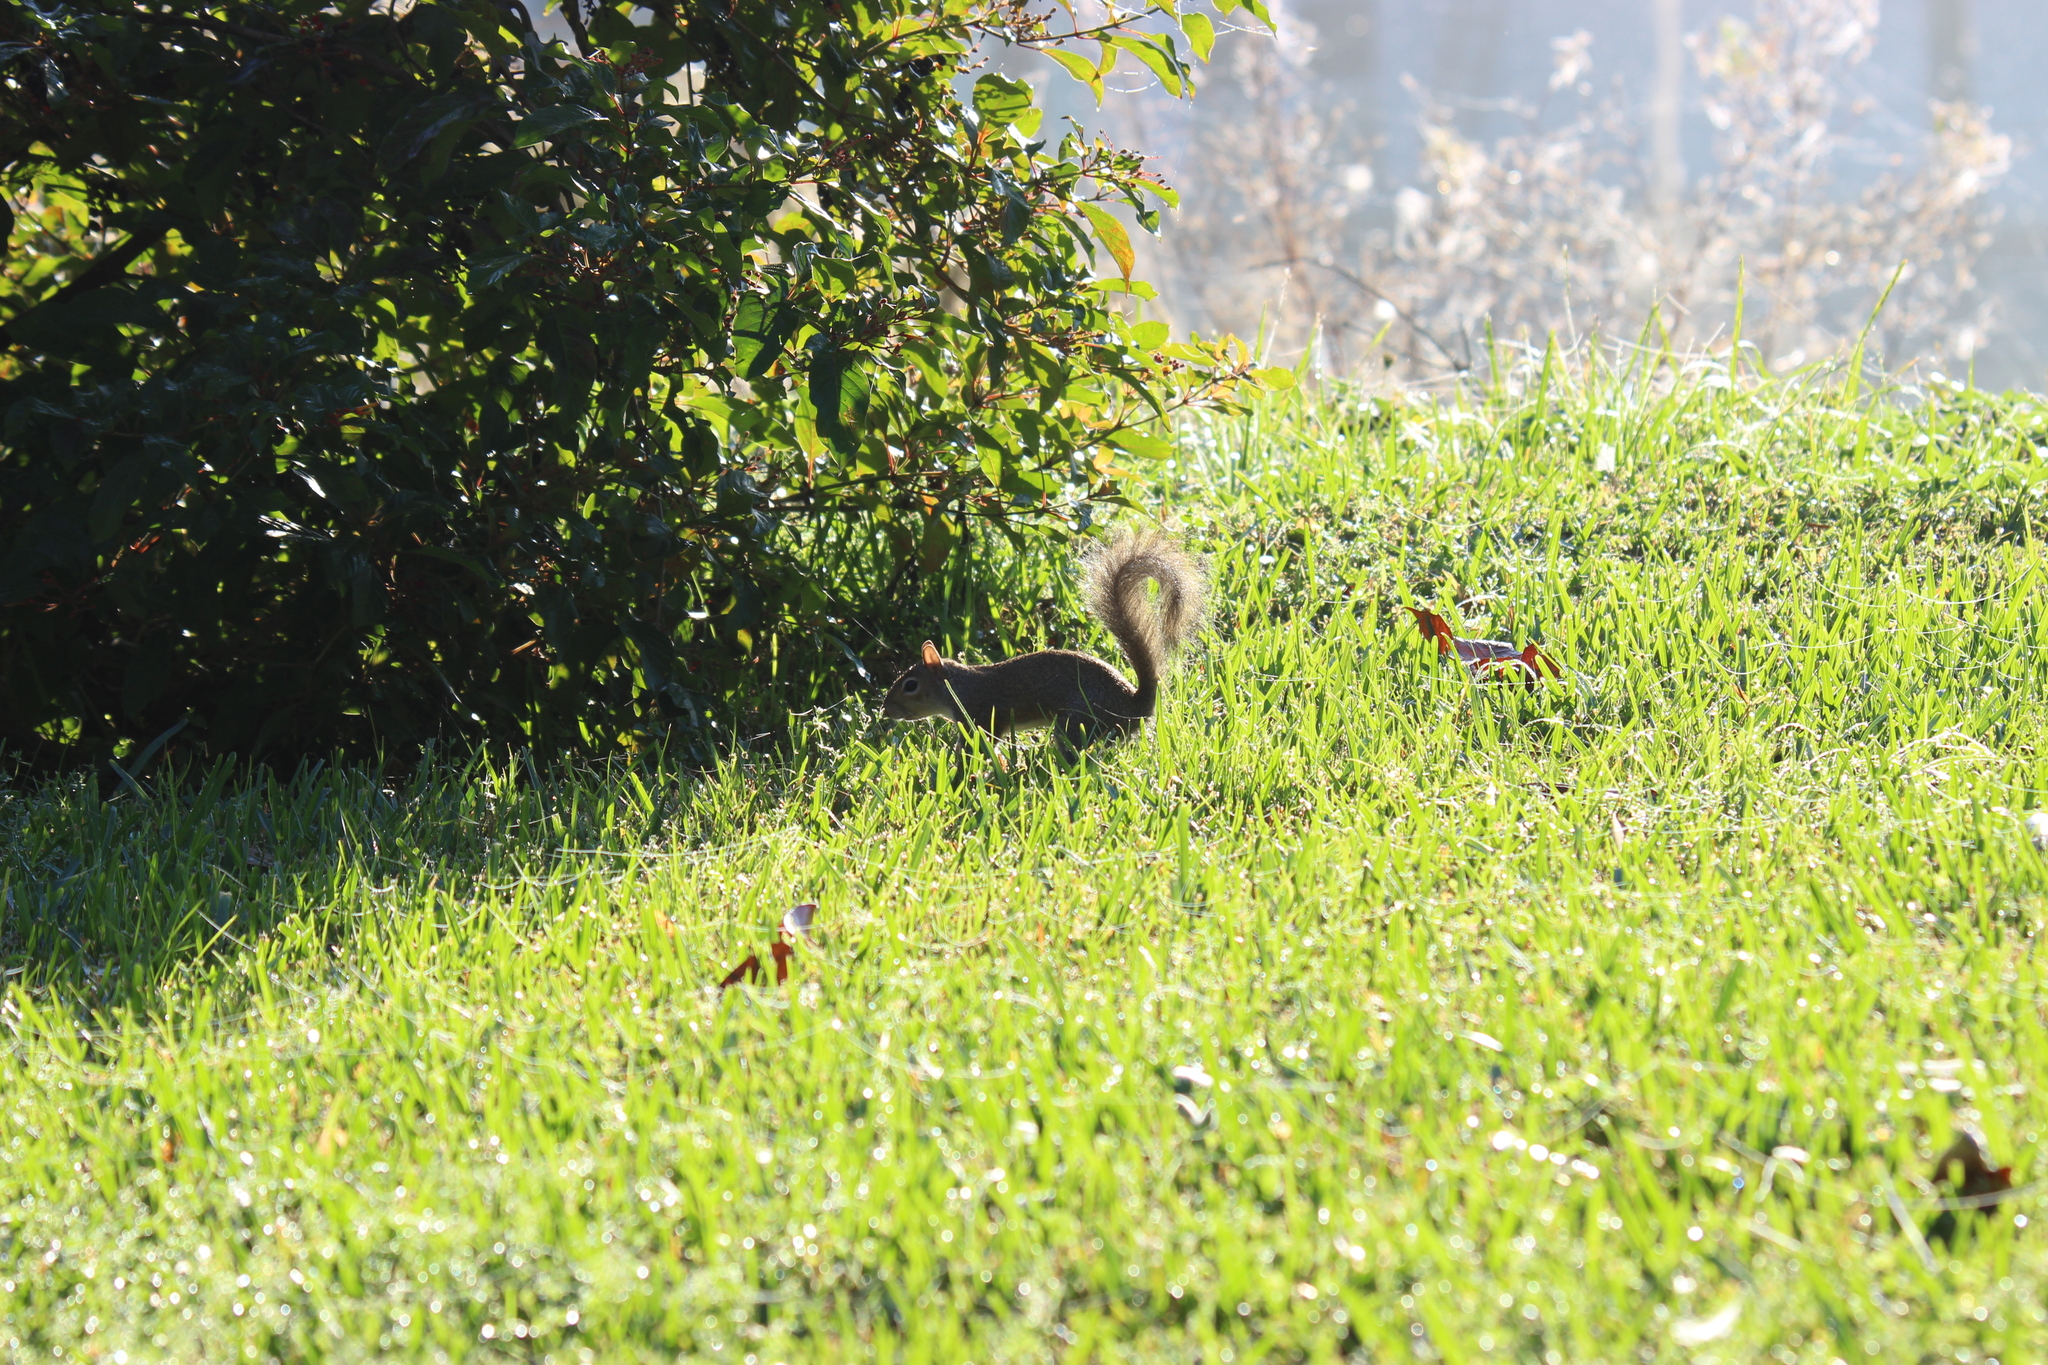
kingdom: Animalia
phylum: Chordata
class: Mammalia
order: Rodentia
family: Sciuridae
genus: Sciurus
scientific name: Sciurus carolinensis
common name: Eastern gray squirrel
